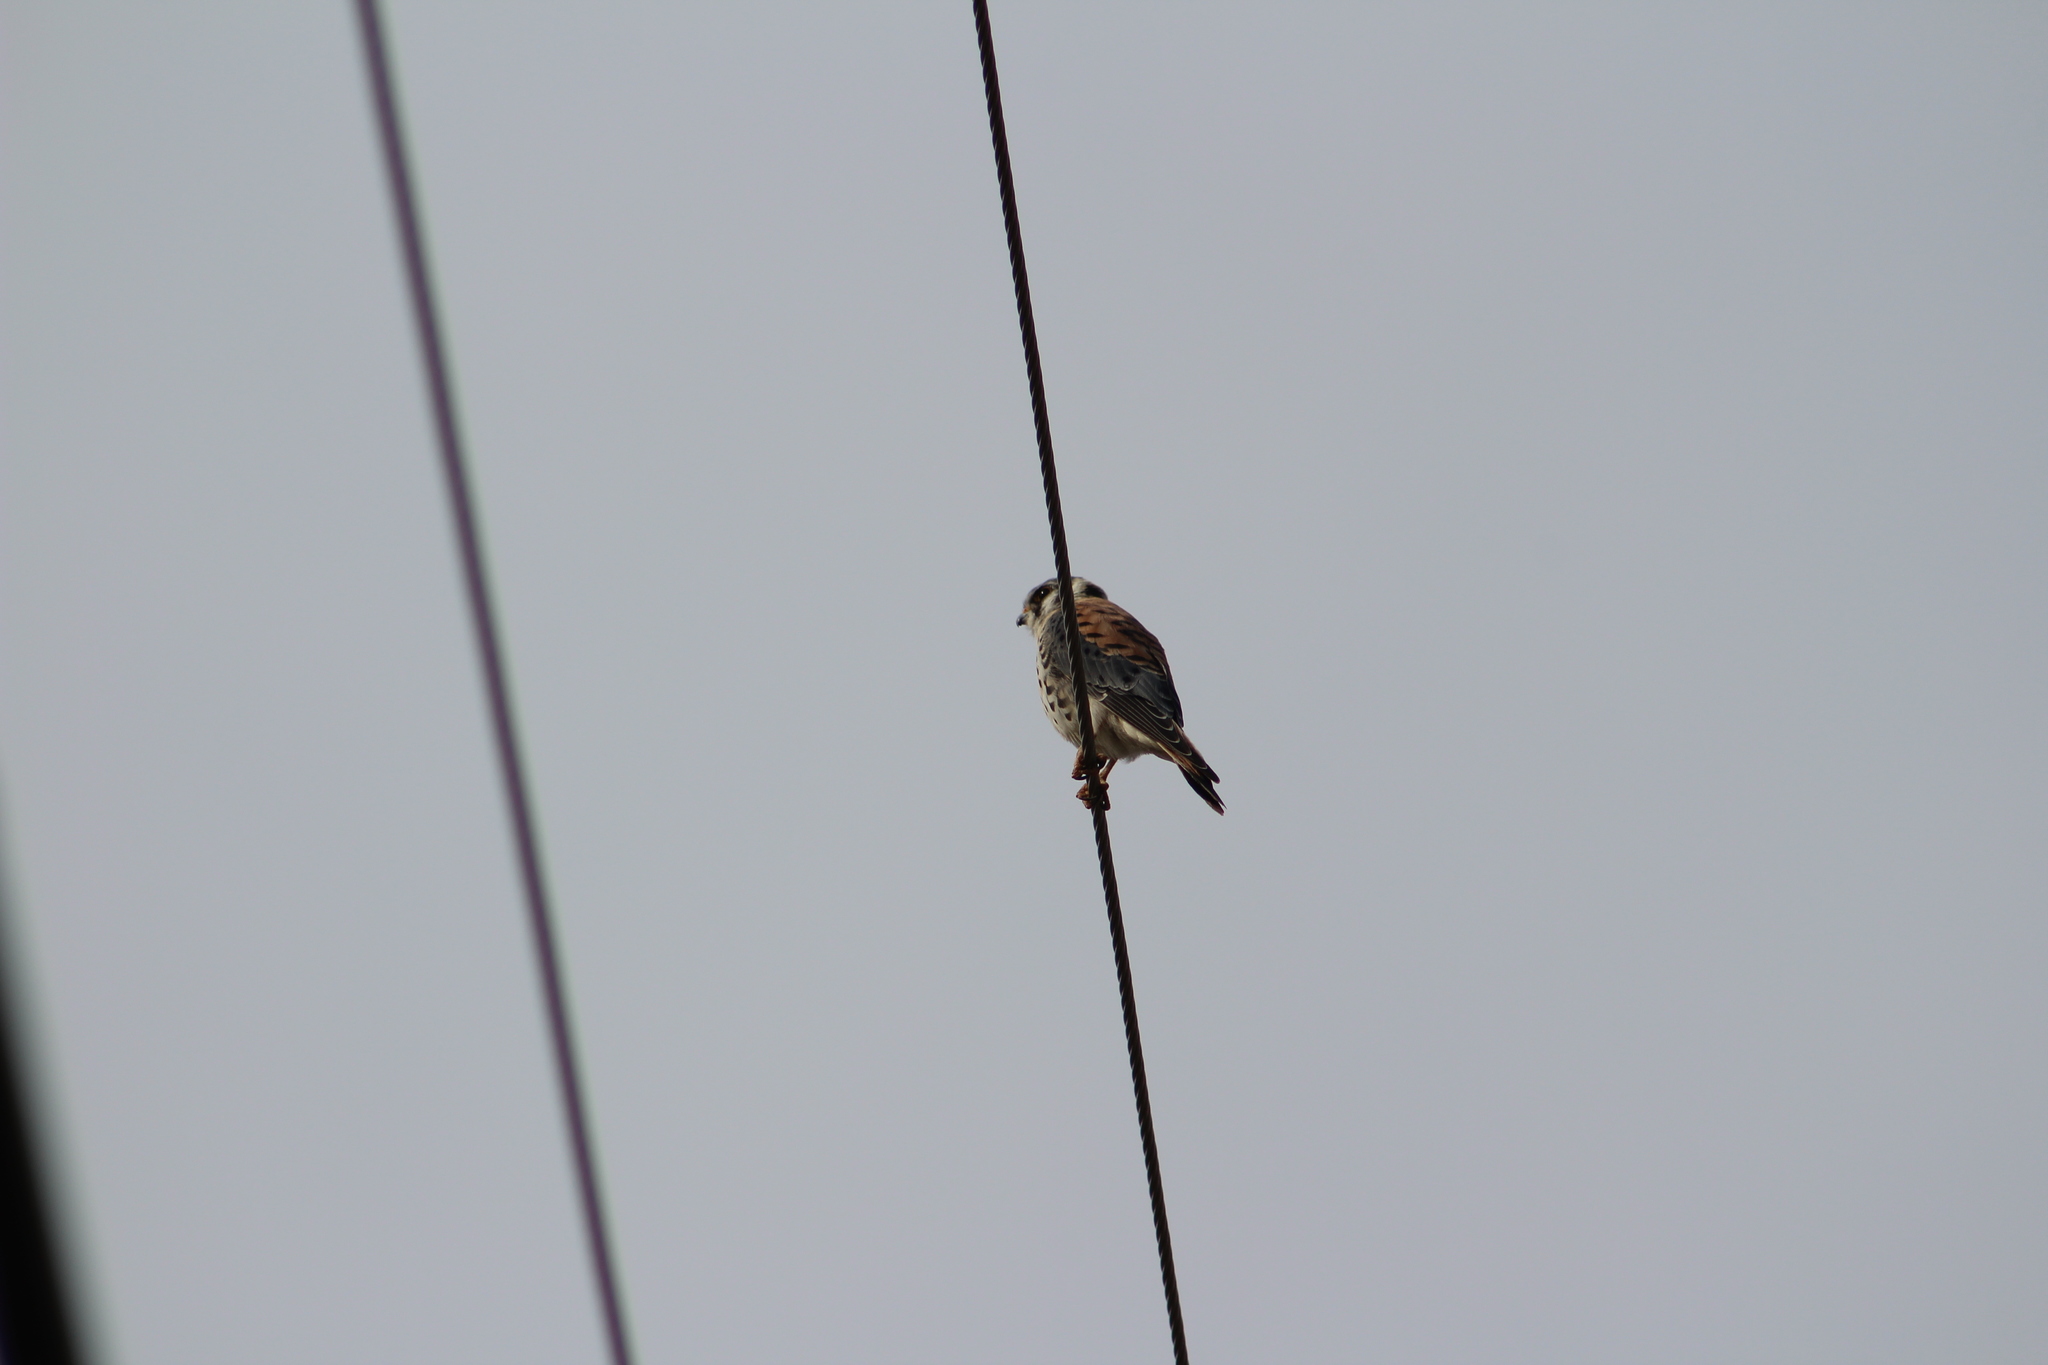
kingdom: Animalia
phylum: Chordata
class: Aves
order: Falconiformes
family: Falconidae
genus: Falco
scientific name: Falco sparverius
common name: American kestrel
